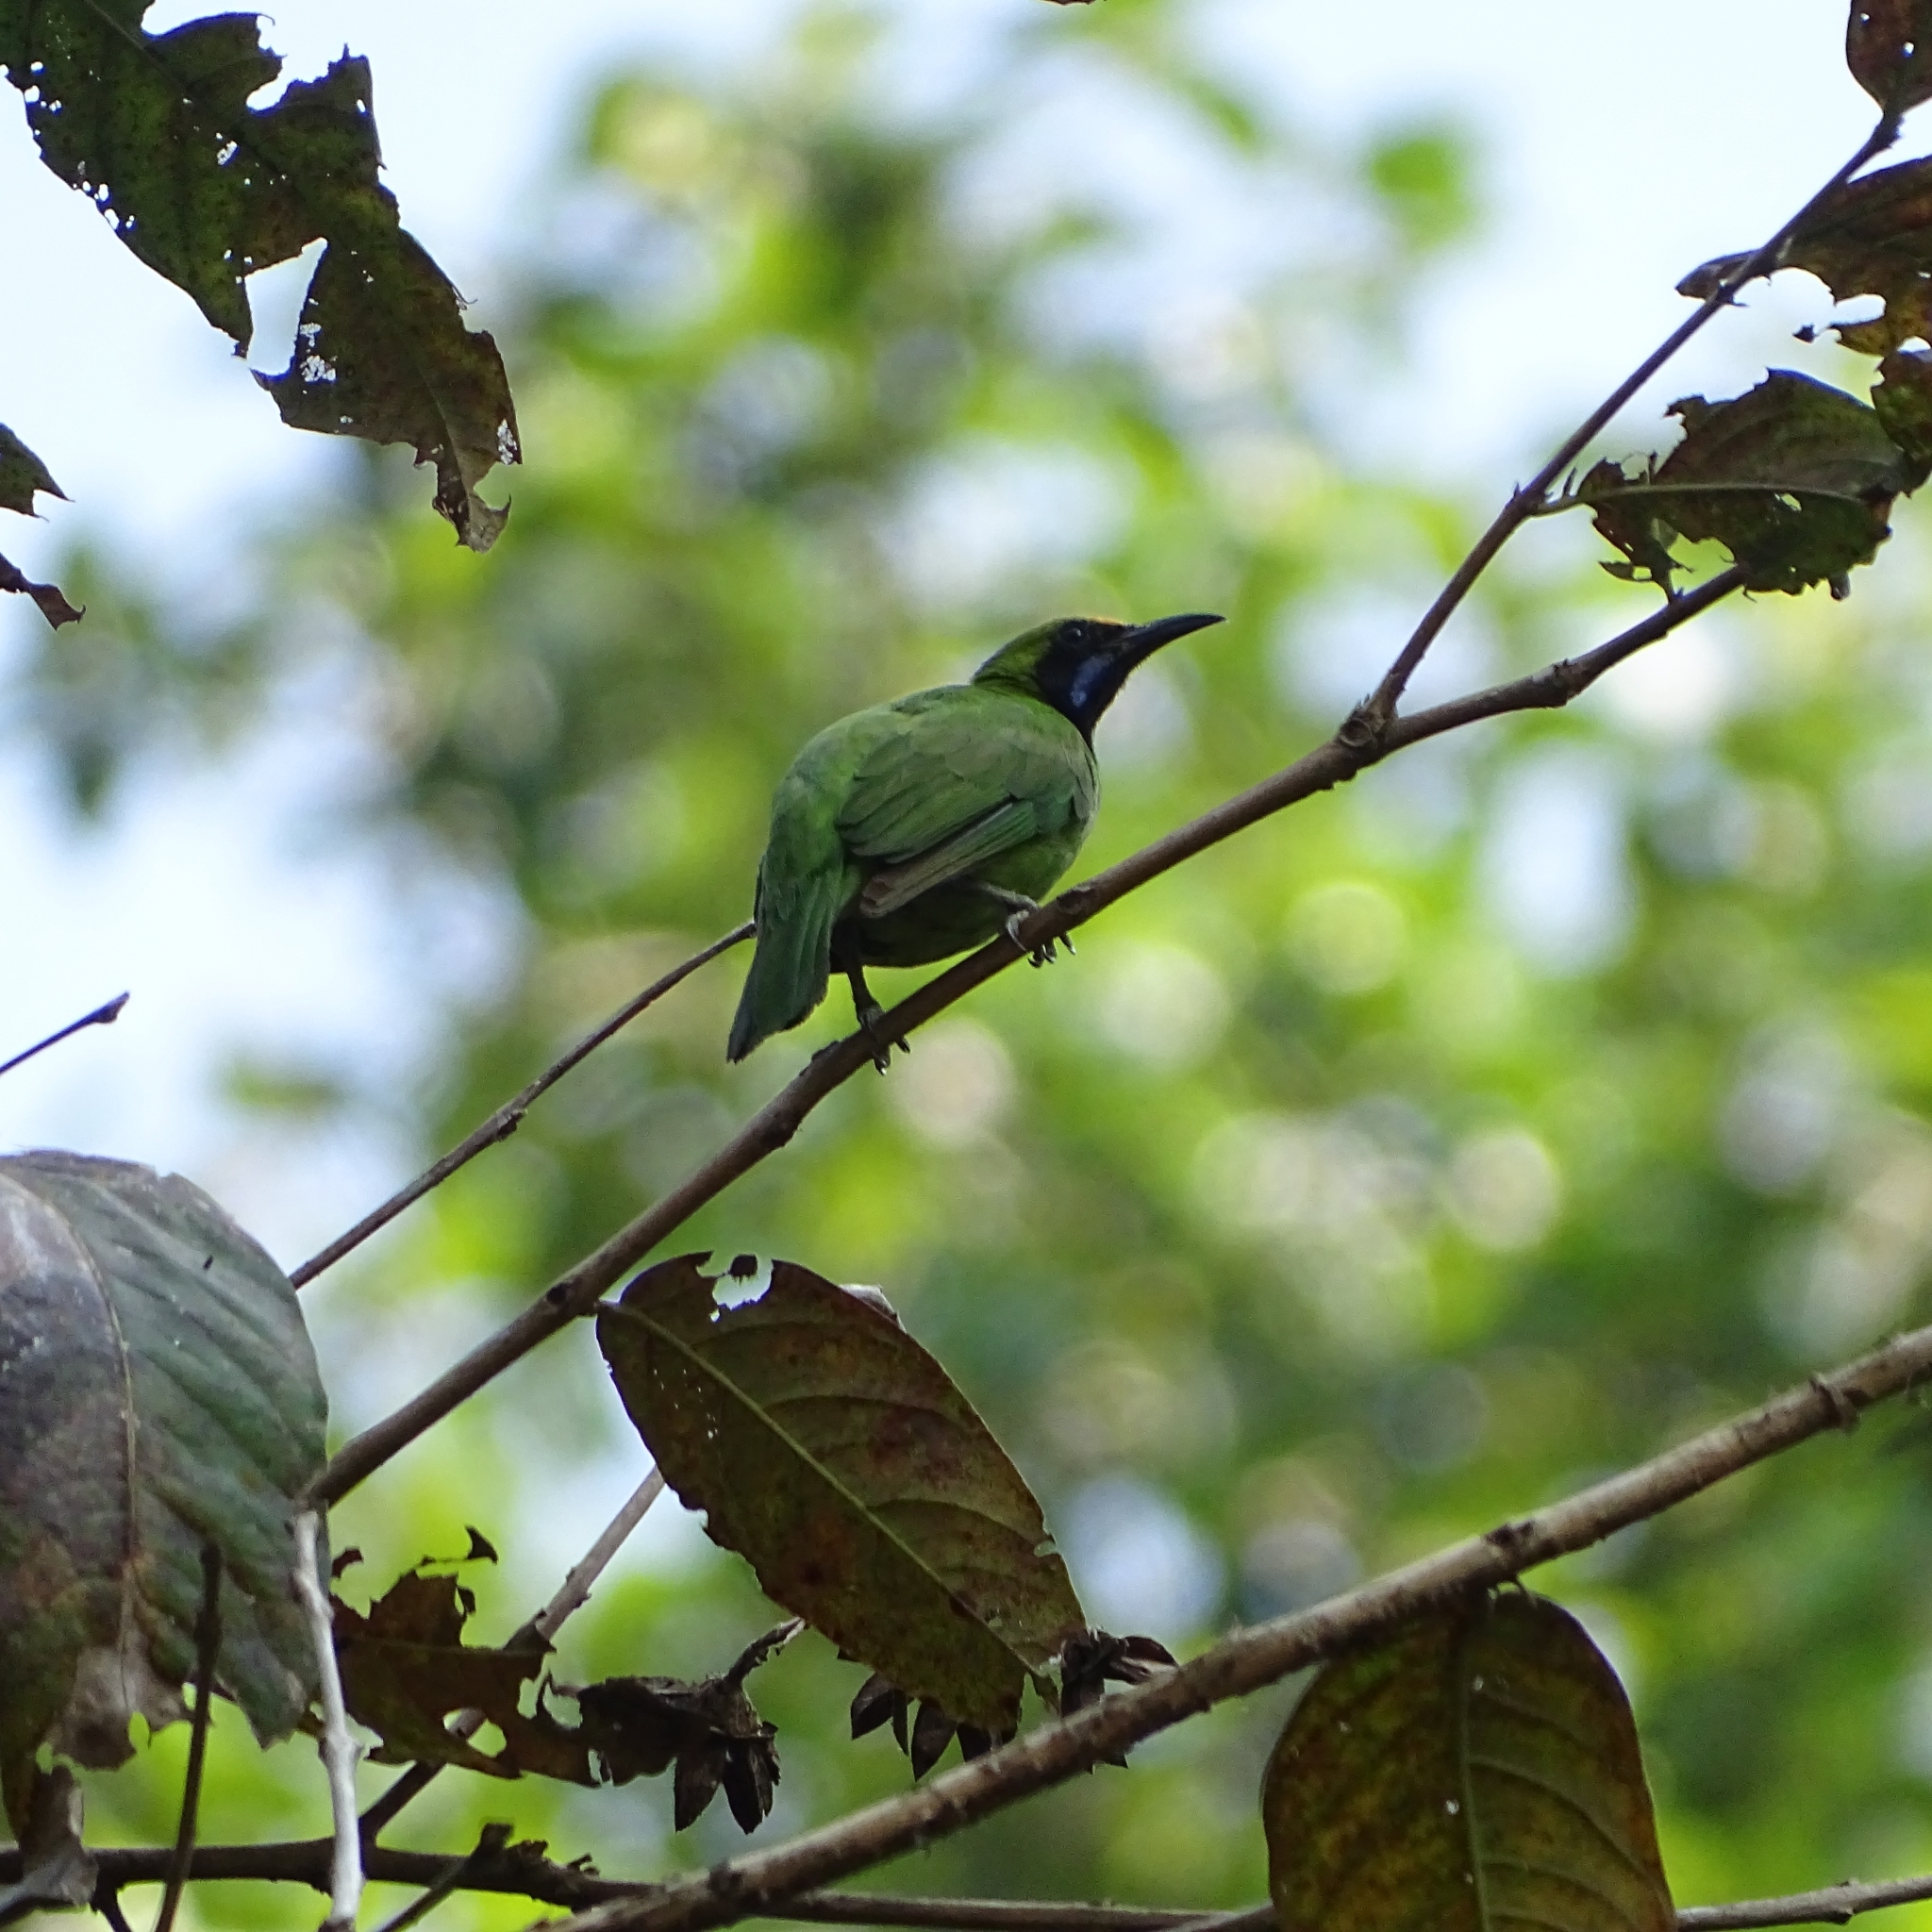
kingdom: Animalia
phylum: Chordata
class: Aves
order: Passeriformes
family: Chloropseidae
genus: Chloropsis
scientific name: Chloropsis aurifrons
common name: Golden-fronted leafbird
